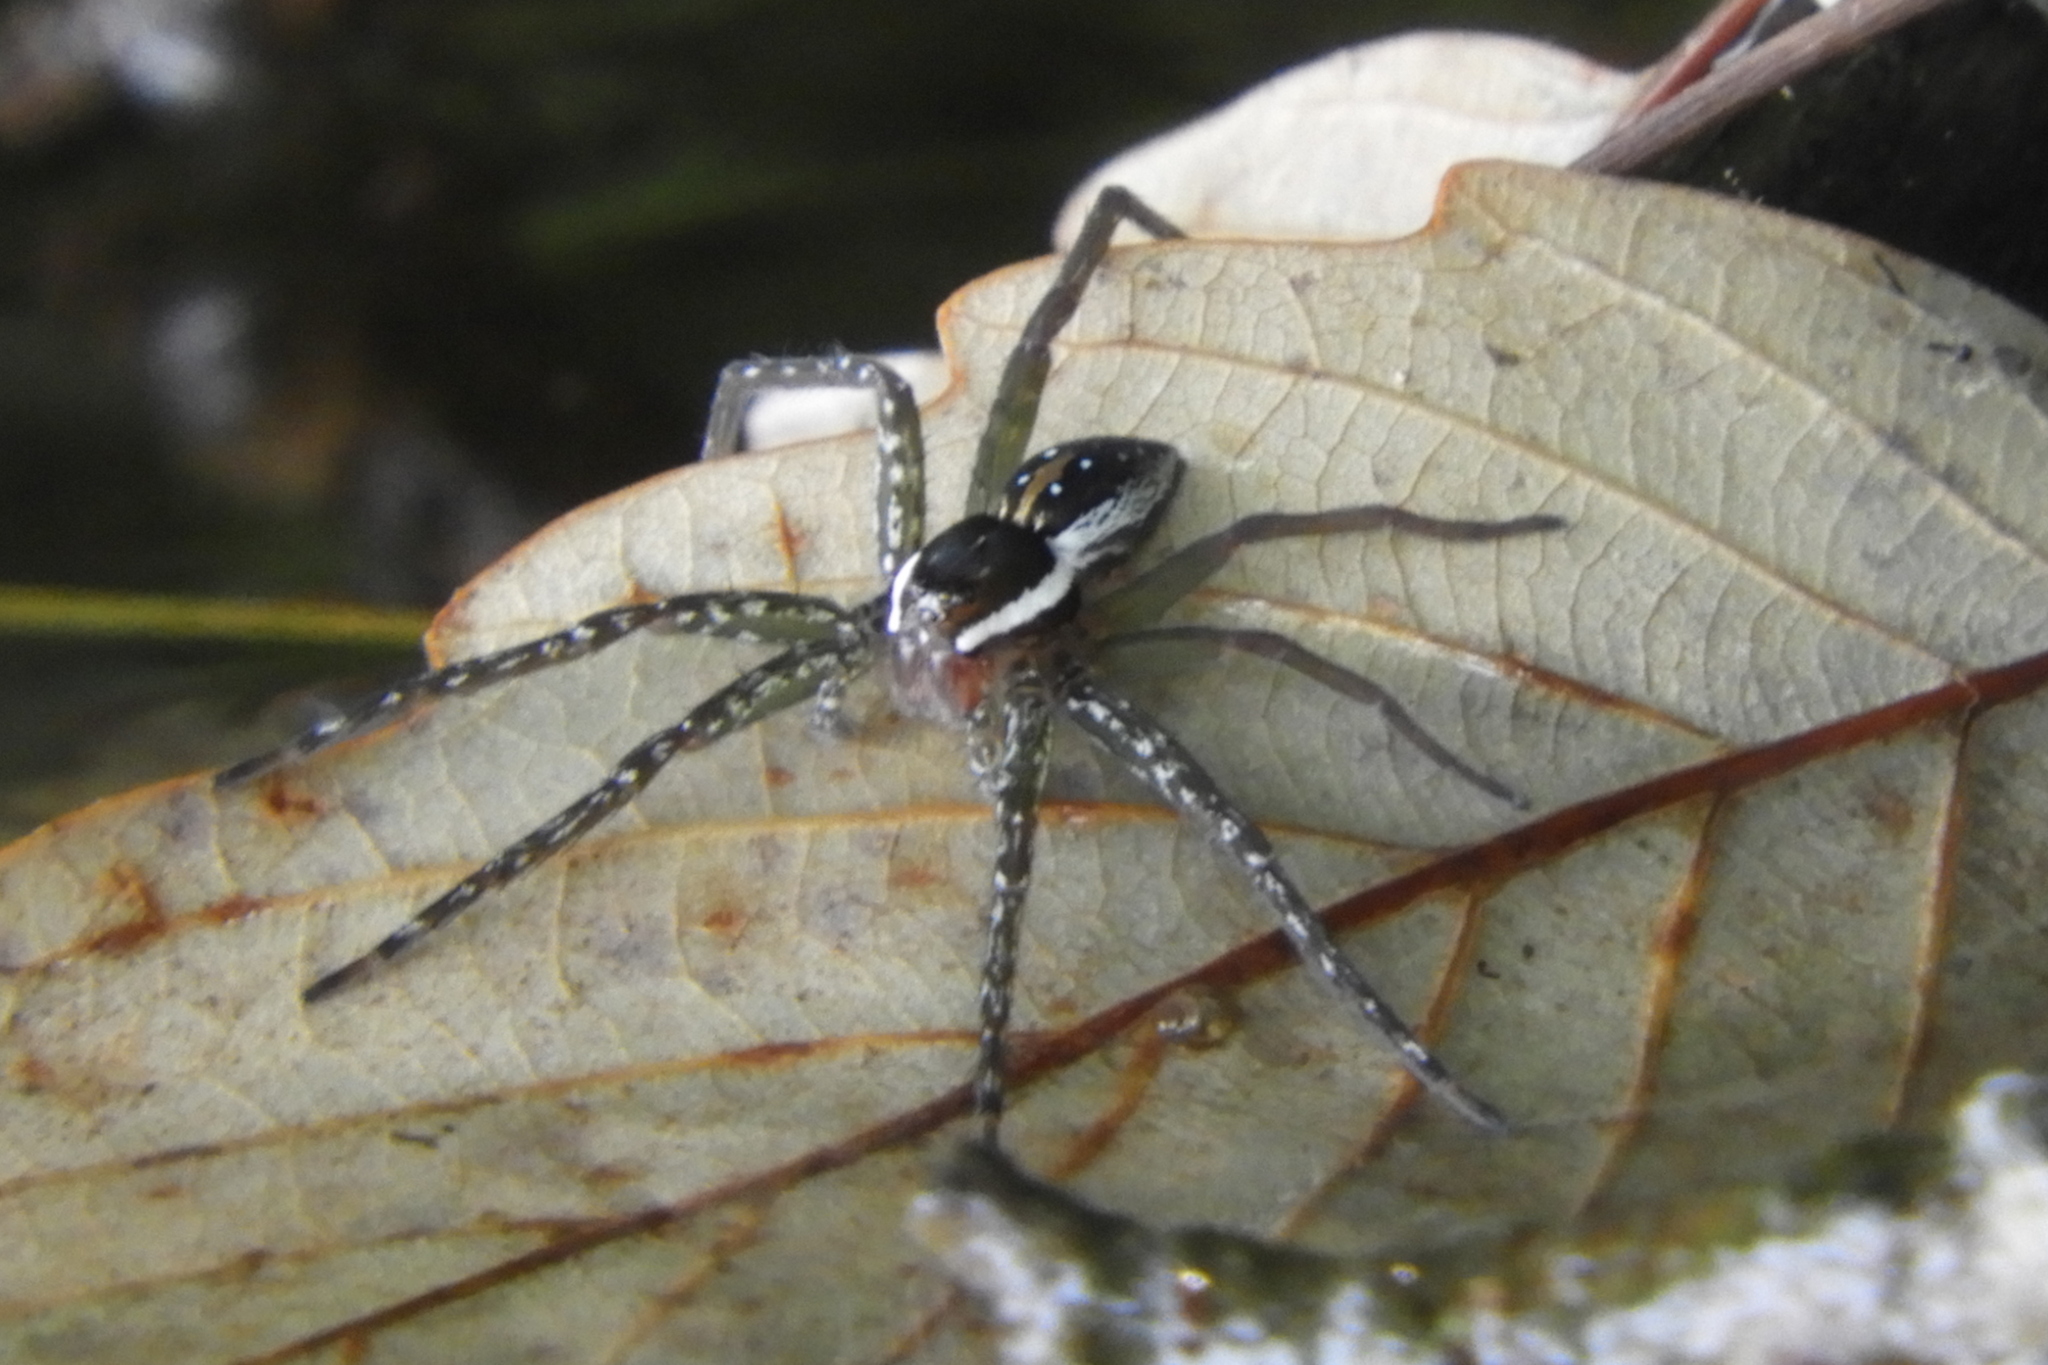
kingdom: Animalia
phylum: Arthropoda
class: Arachnida
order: Araneae
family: Pisauridae
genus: Dolomedes
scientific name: Dolomedes triton
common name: Six-spotted fishing spider
